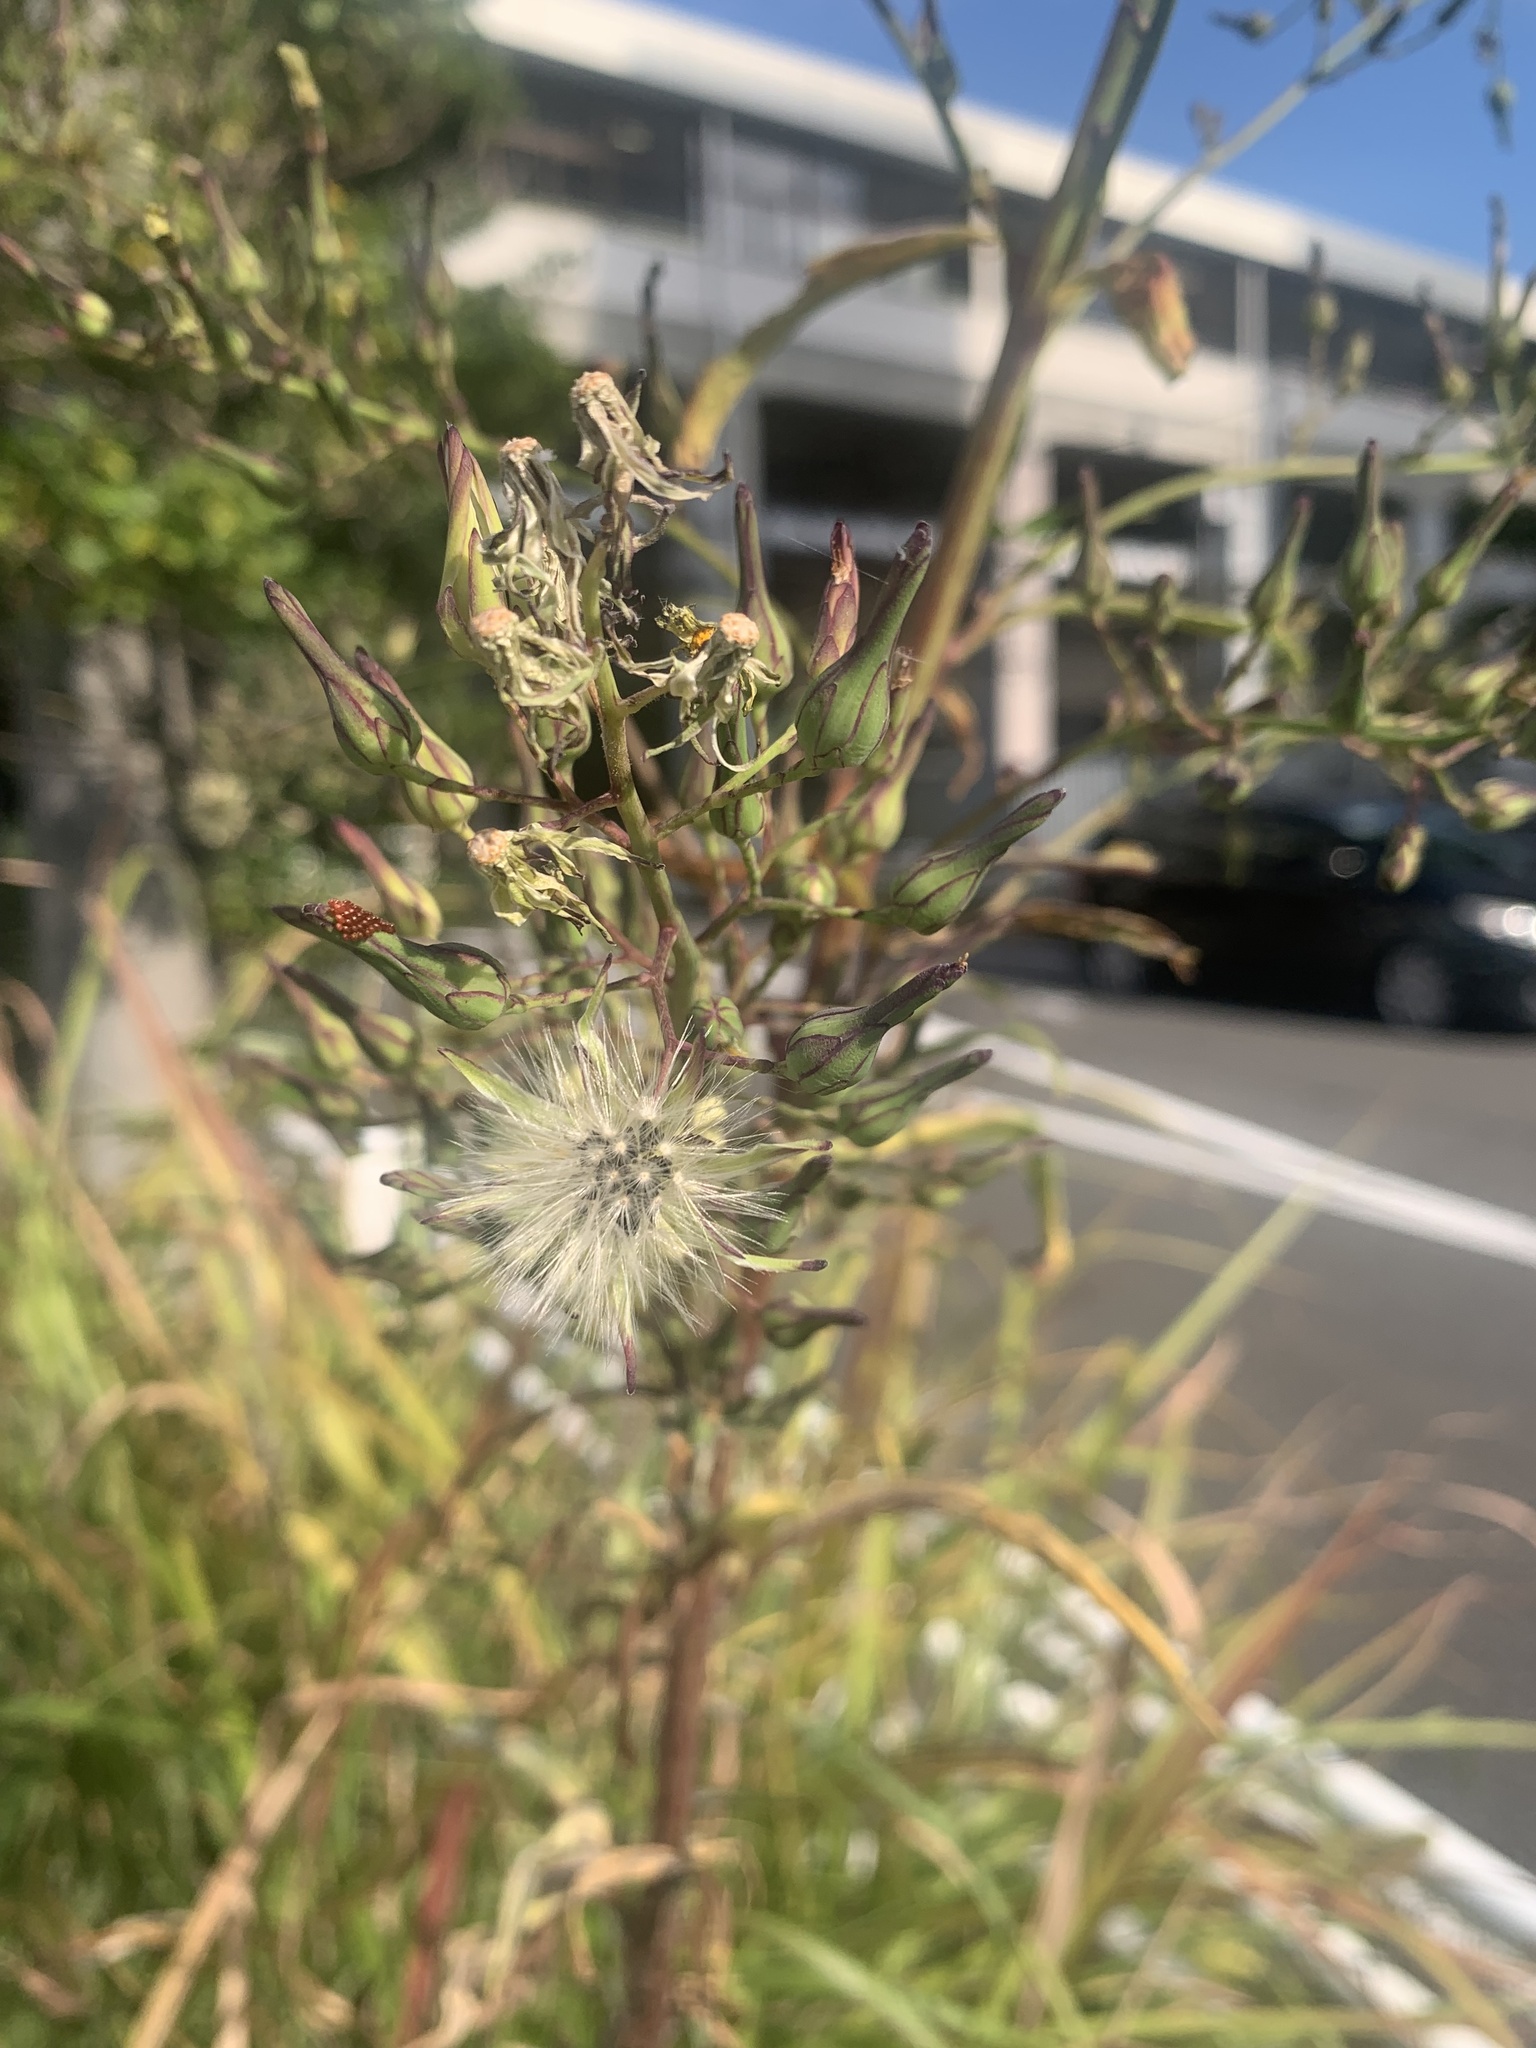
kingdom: Plantae
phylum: Tracheophyta
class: Magnoliopsida
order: Asterales
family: Asteraceae
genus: Lactuca
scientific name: Lactuca indica
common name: Wild lettuce
